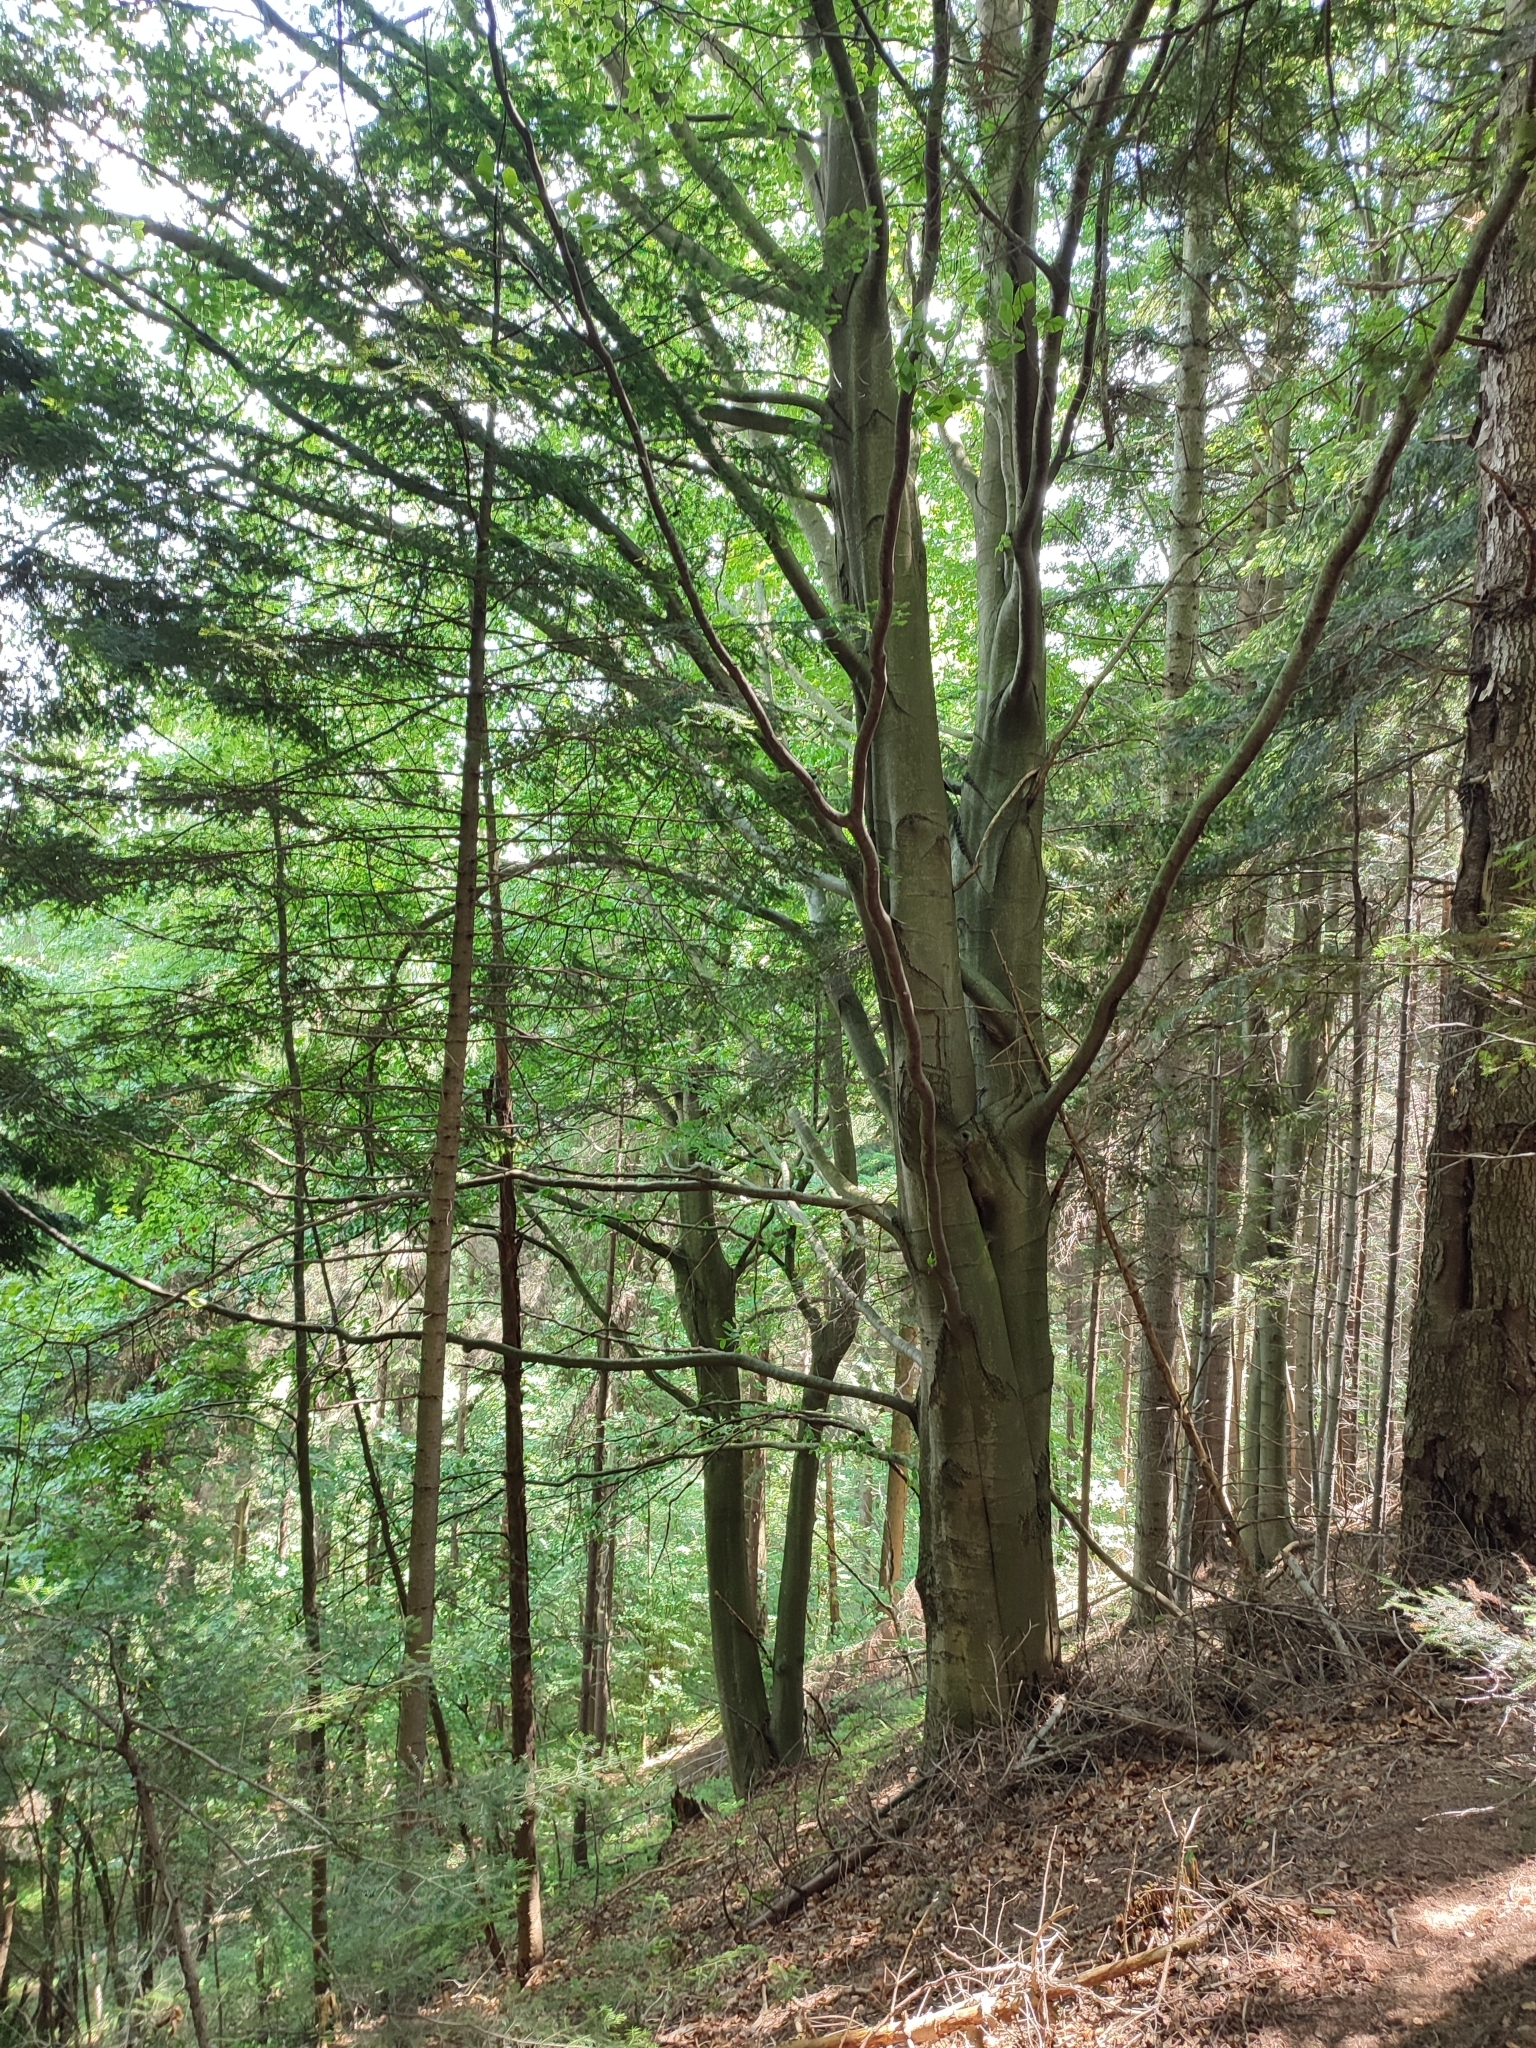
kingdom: Plantae
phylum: Tracheophyta
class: Magnoliopsida
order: Fagales
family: Fagaceae
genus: Fagus
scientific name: Fagus sylvatica
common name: Beech
